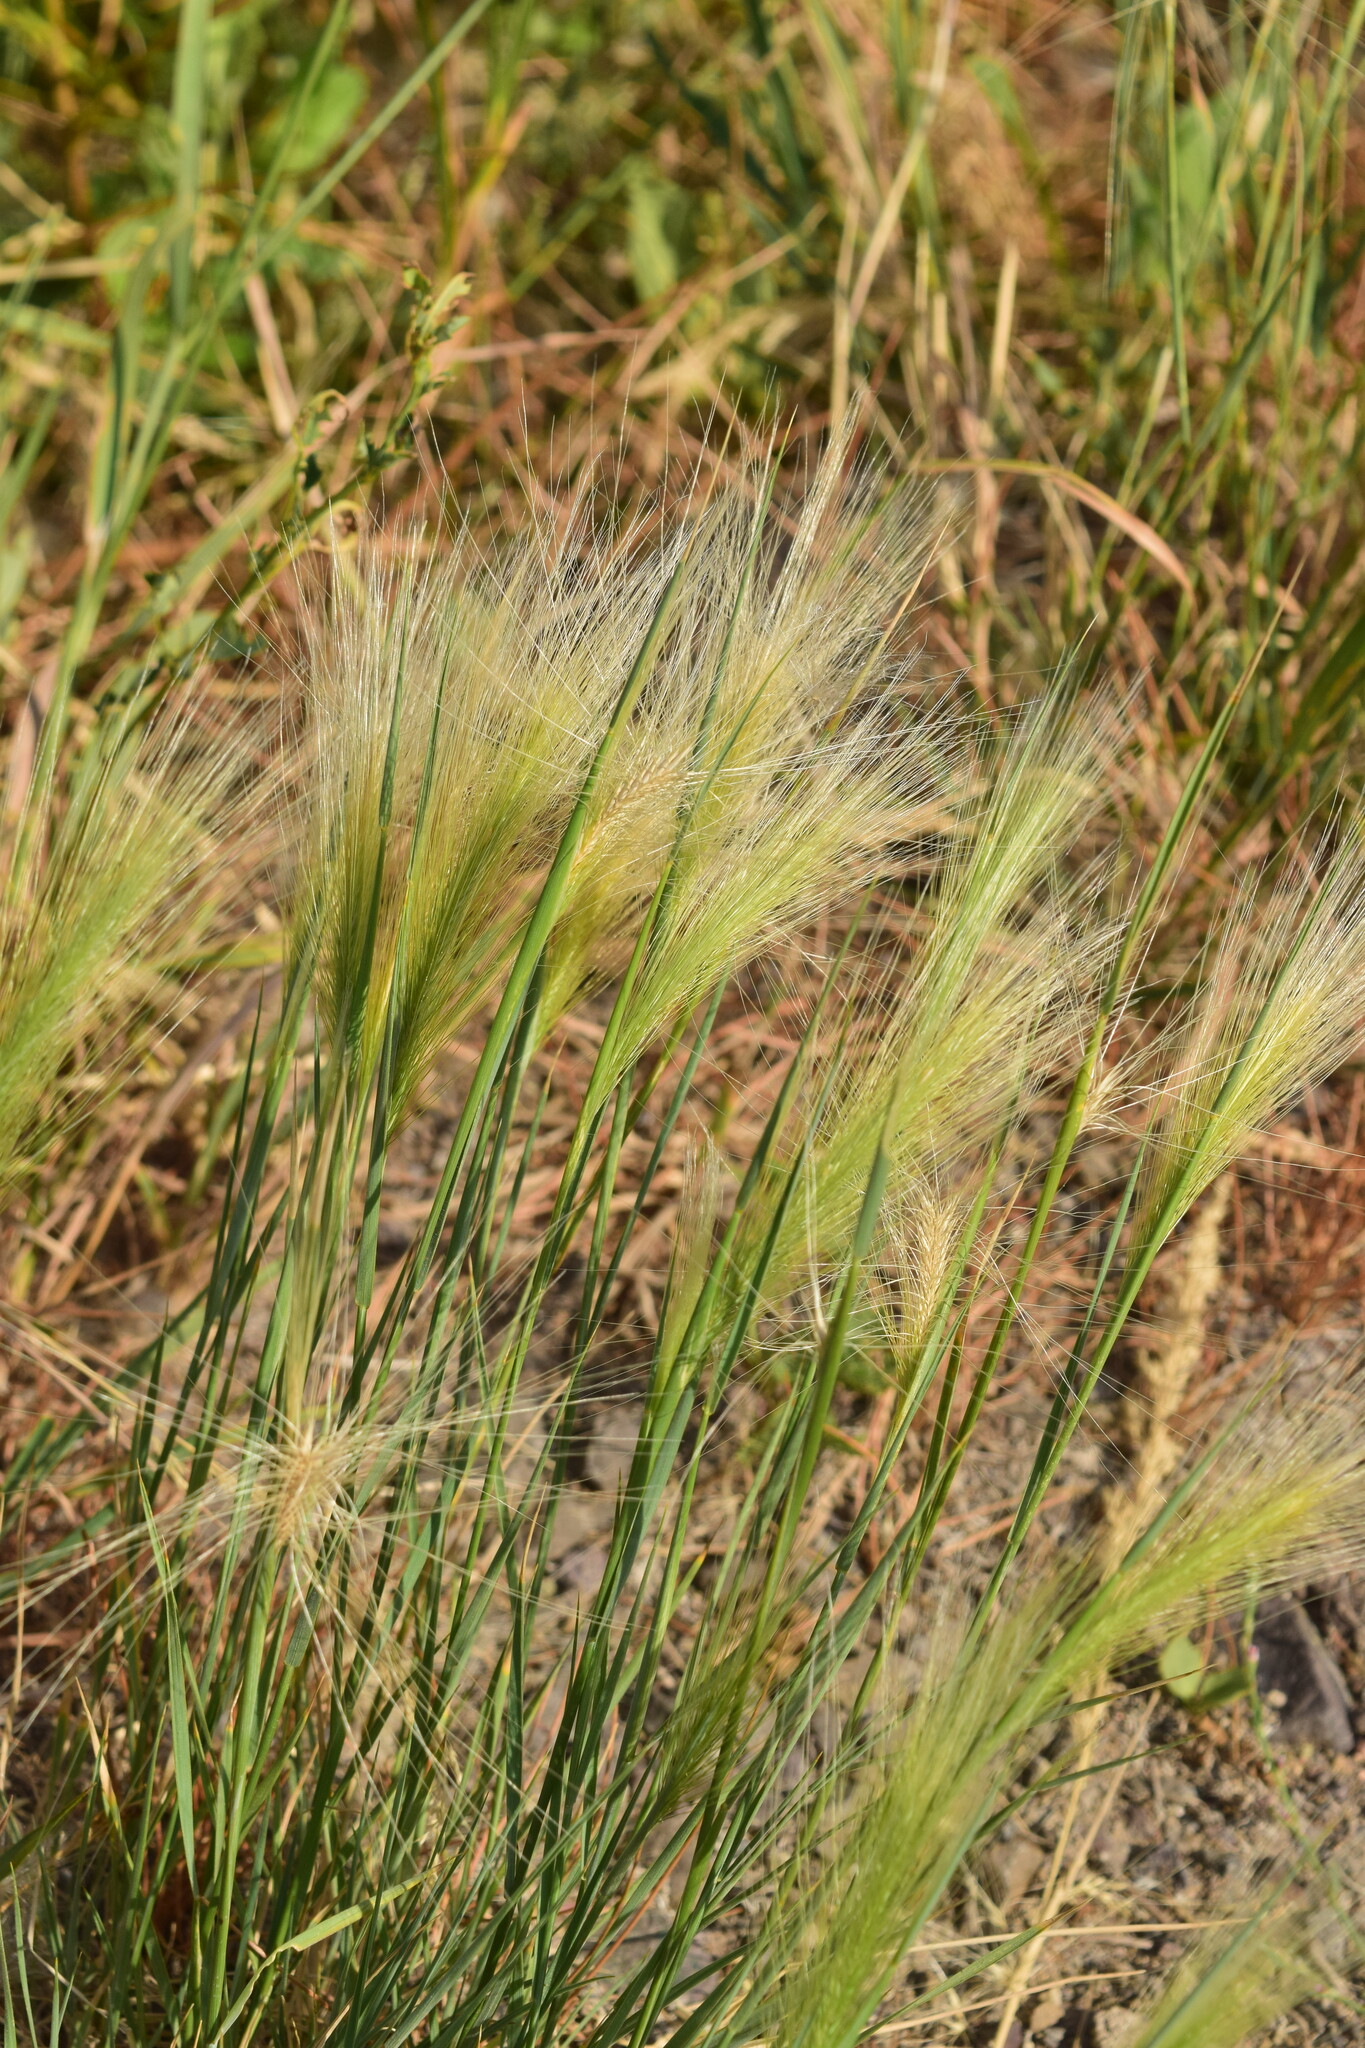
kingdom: Plantae
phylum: Tracheophyta
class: Liliopsida
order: Poales
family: Poaceae
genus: Hordeum
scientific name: Hordeum jubatum
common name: Foxtail barley
